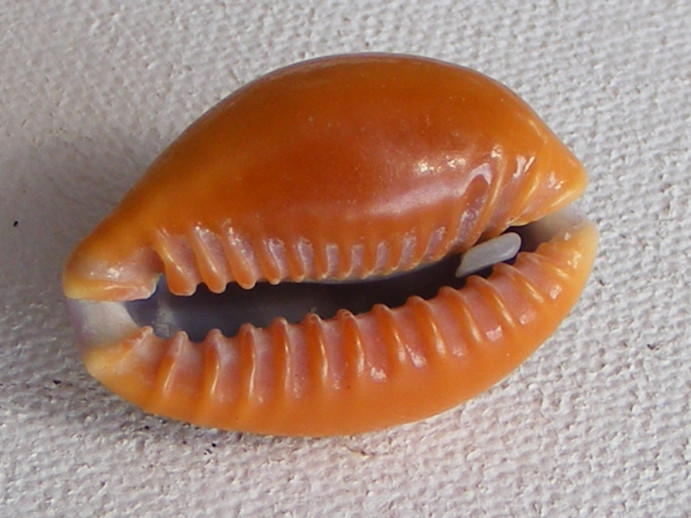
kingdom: Animalia
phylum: Mollusca
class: Gastropoda
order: Littorinimorpha
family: Cypraeidae
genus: Naria
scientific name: Naria helvola
